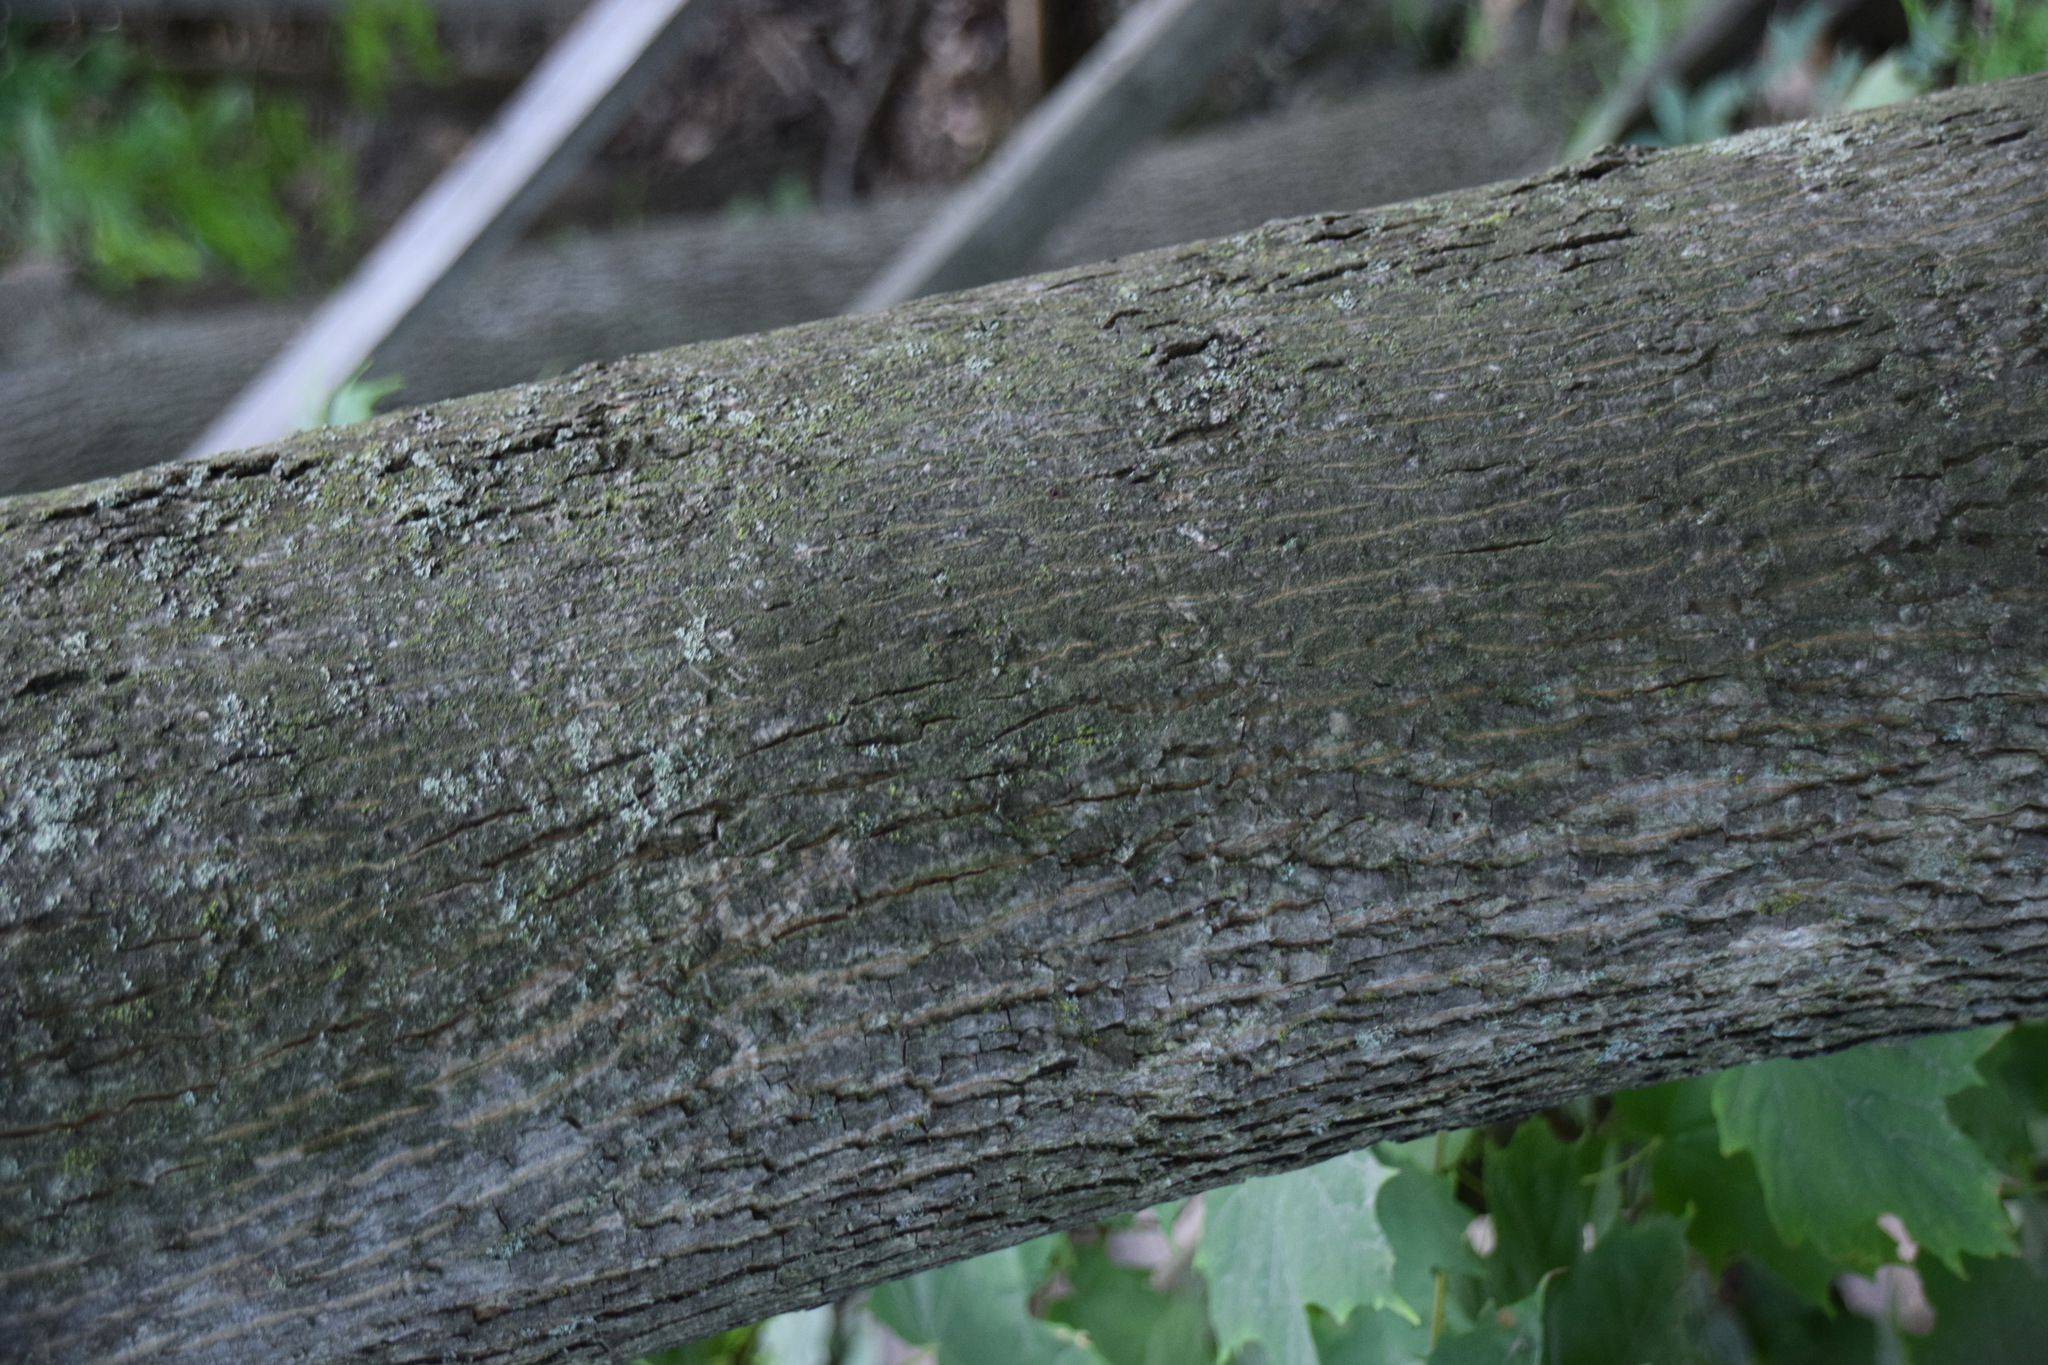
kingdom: Plantae
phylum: Tracheophyta
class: Magnoliopsida
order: Fagales
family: Juglandaceae
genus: Carya
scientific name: Carya cordiformis
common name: Bitternut hickory
